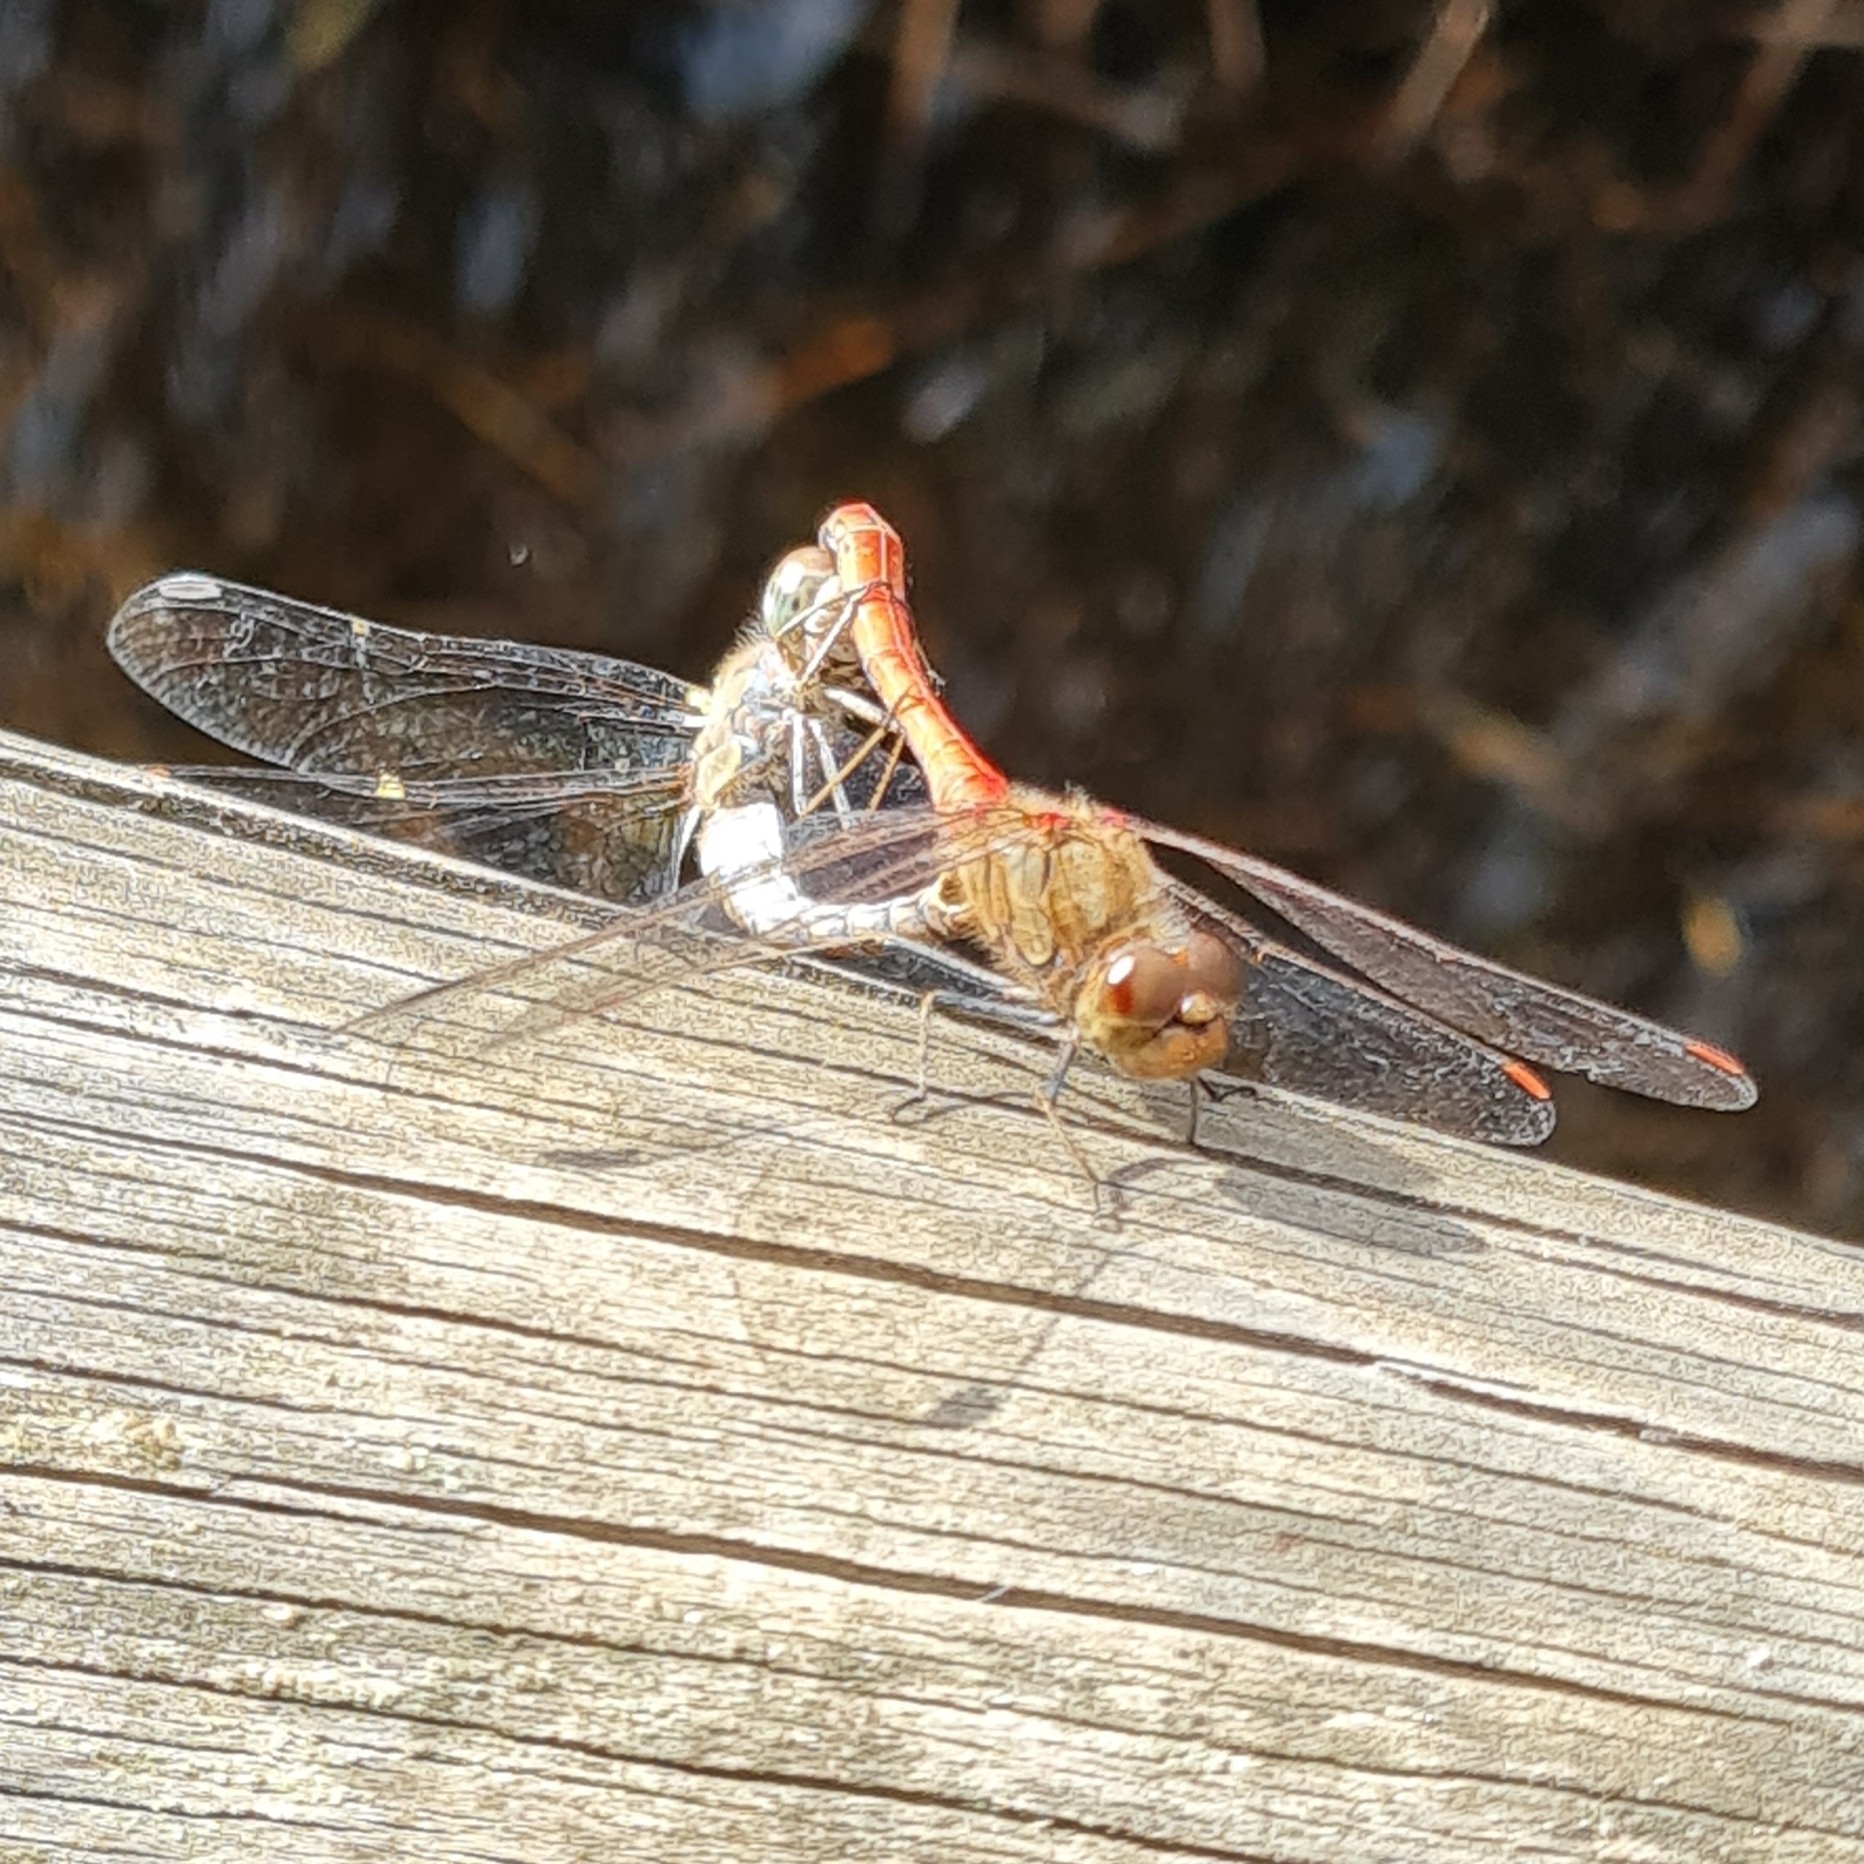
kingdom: Animalia
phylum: Arthropoda
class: Insecta
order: Odonata
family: Libellulidae
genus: Sympetrum
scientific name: Sympetrum striolatum
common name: Common darter
